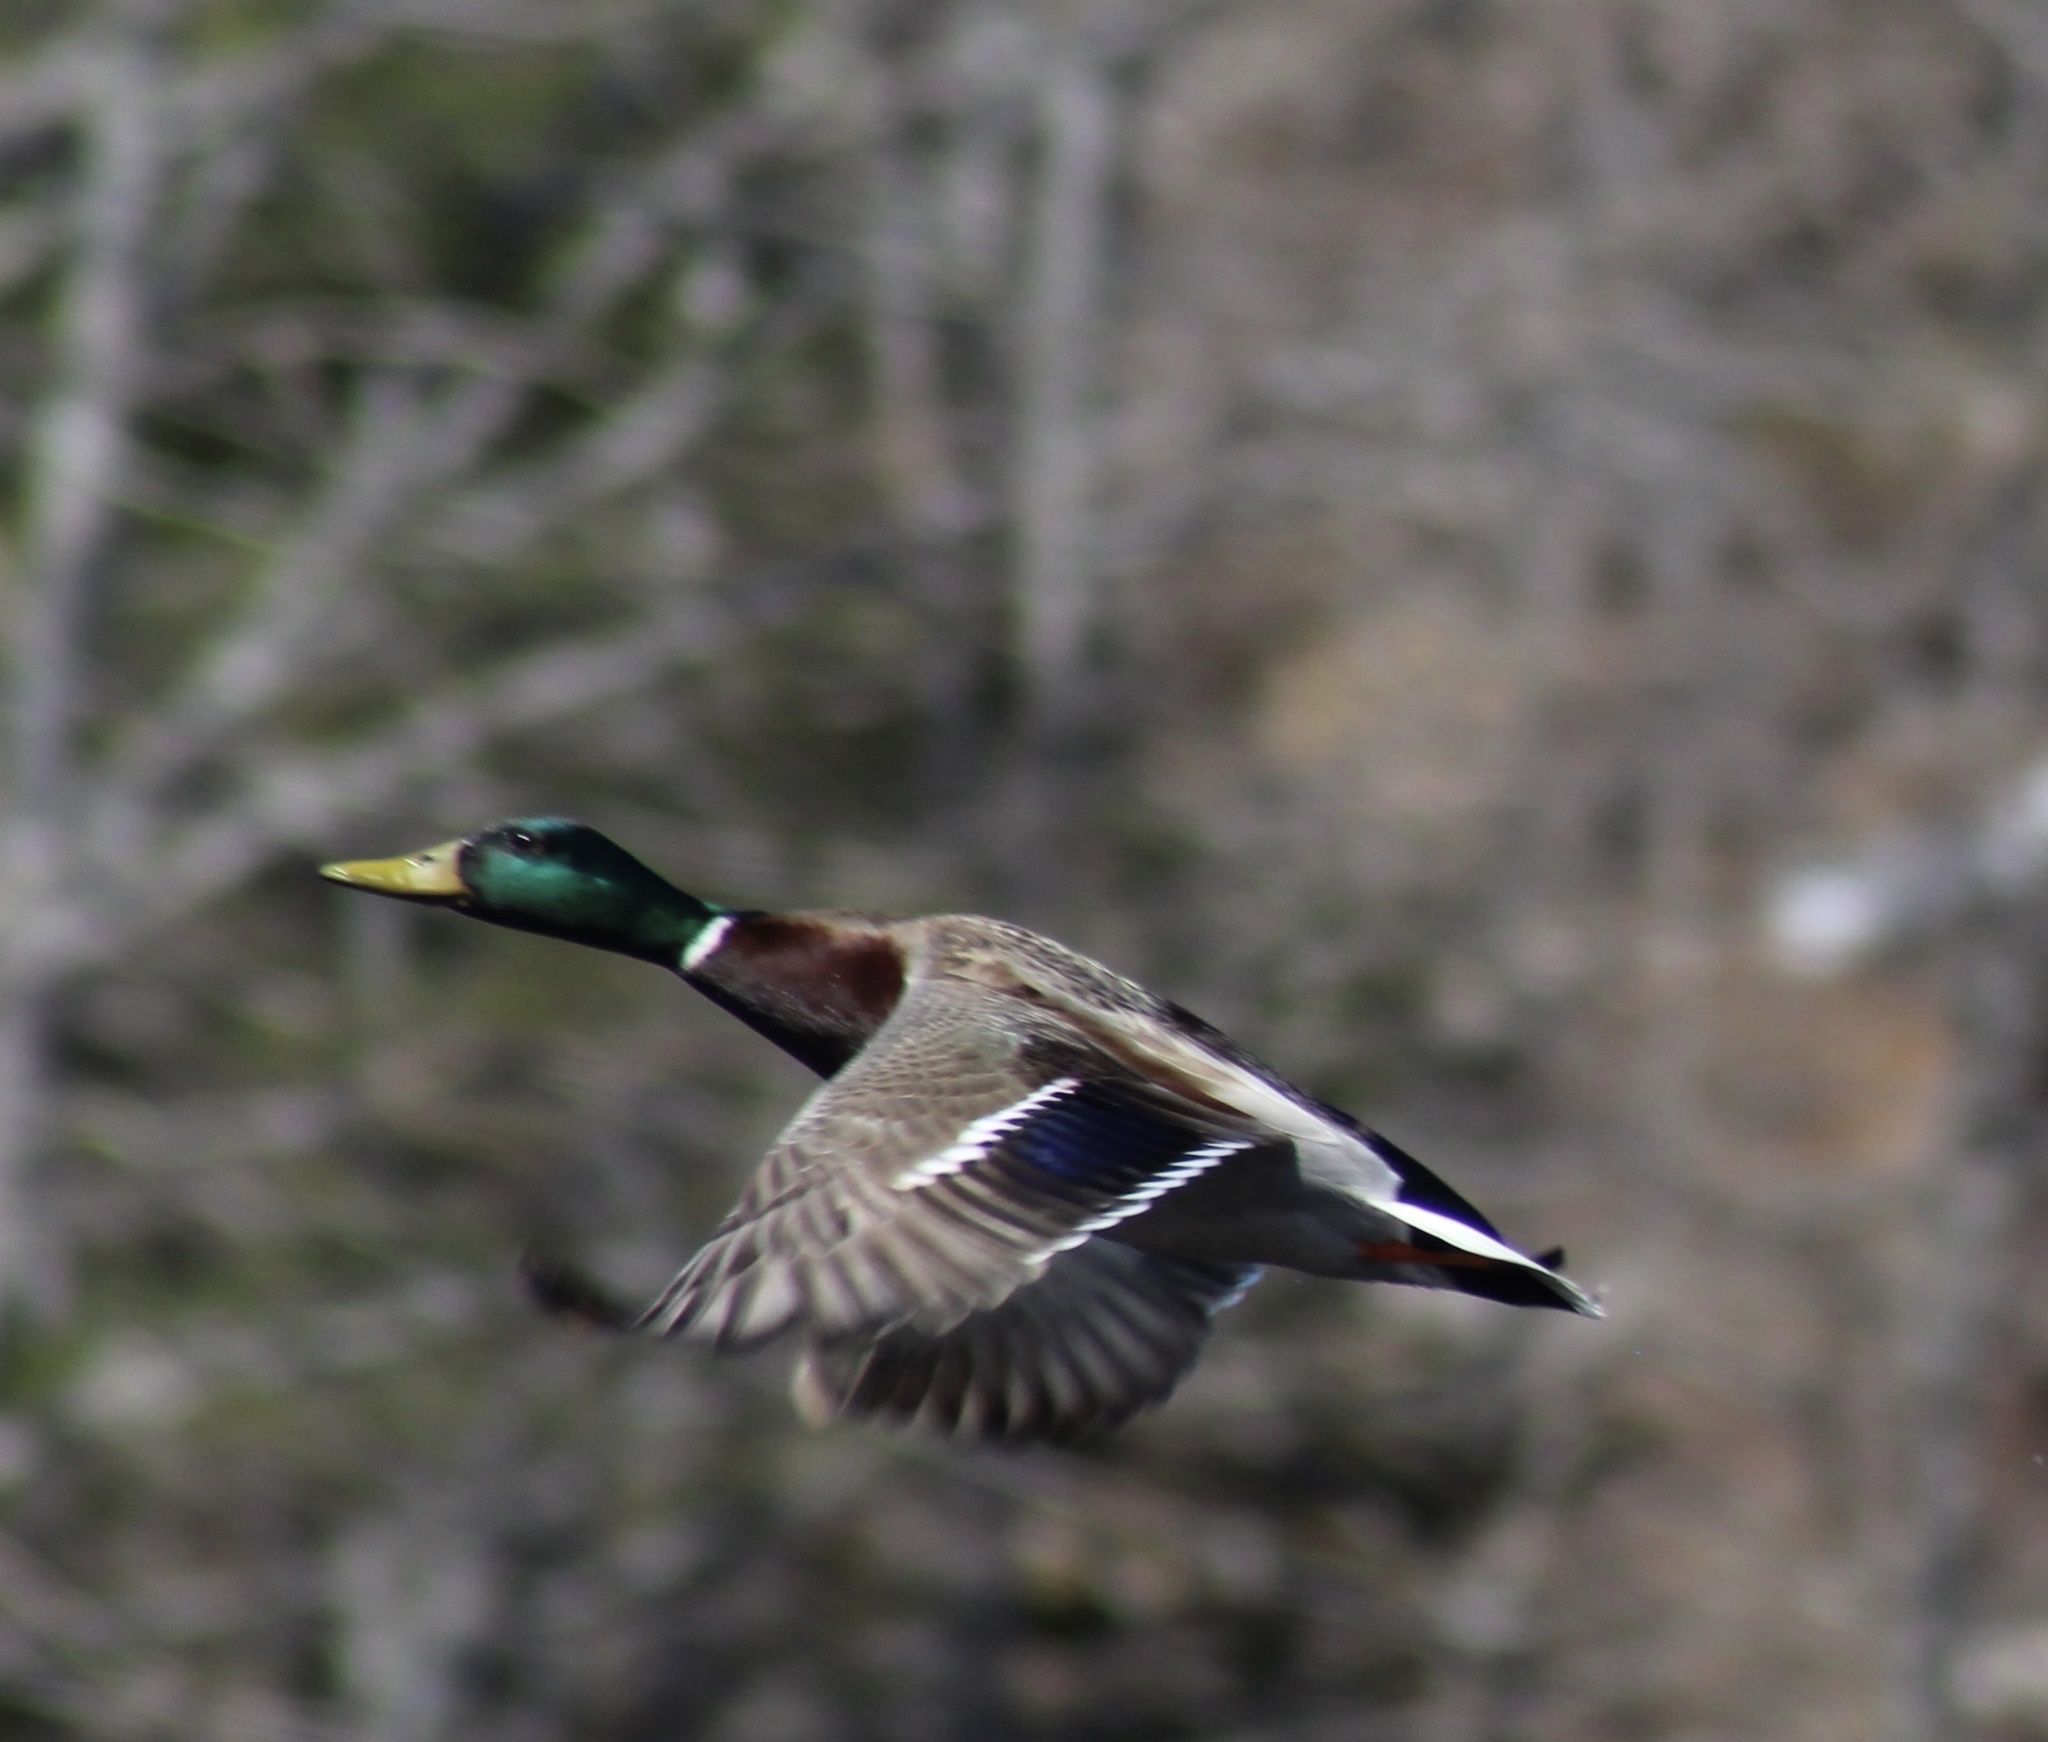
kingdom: Animalia
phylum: Chordata
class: Aves
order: Anseriformes
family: Anatidae
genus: Anas
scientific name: Anas platyrhynchos
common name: Mallard
